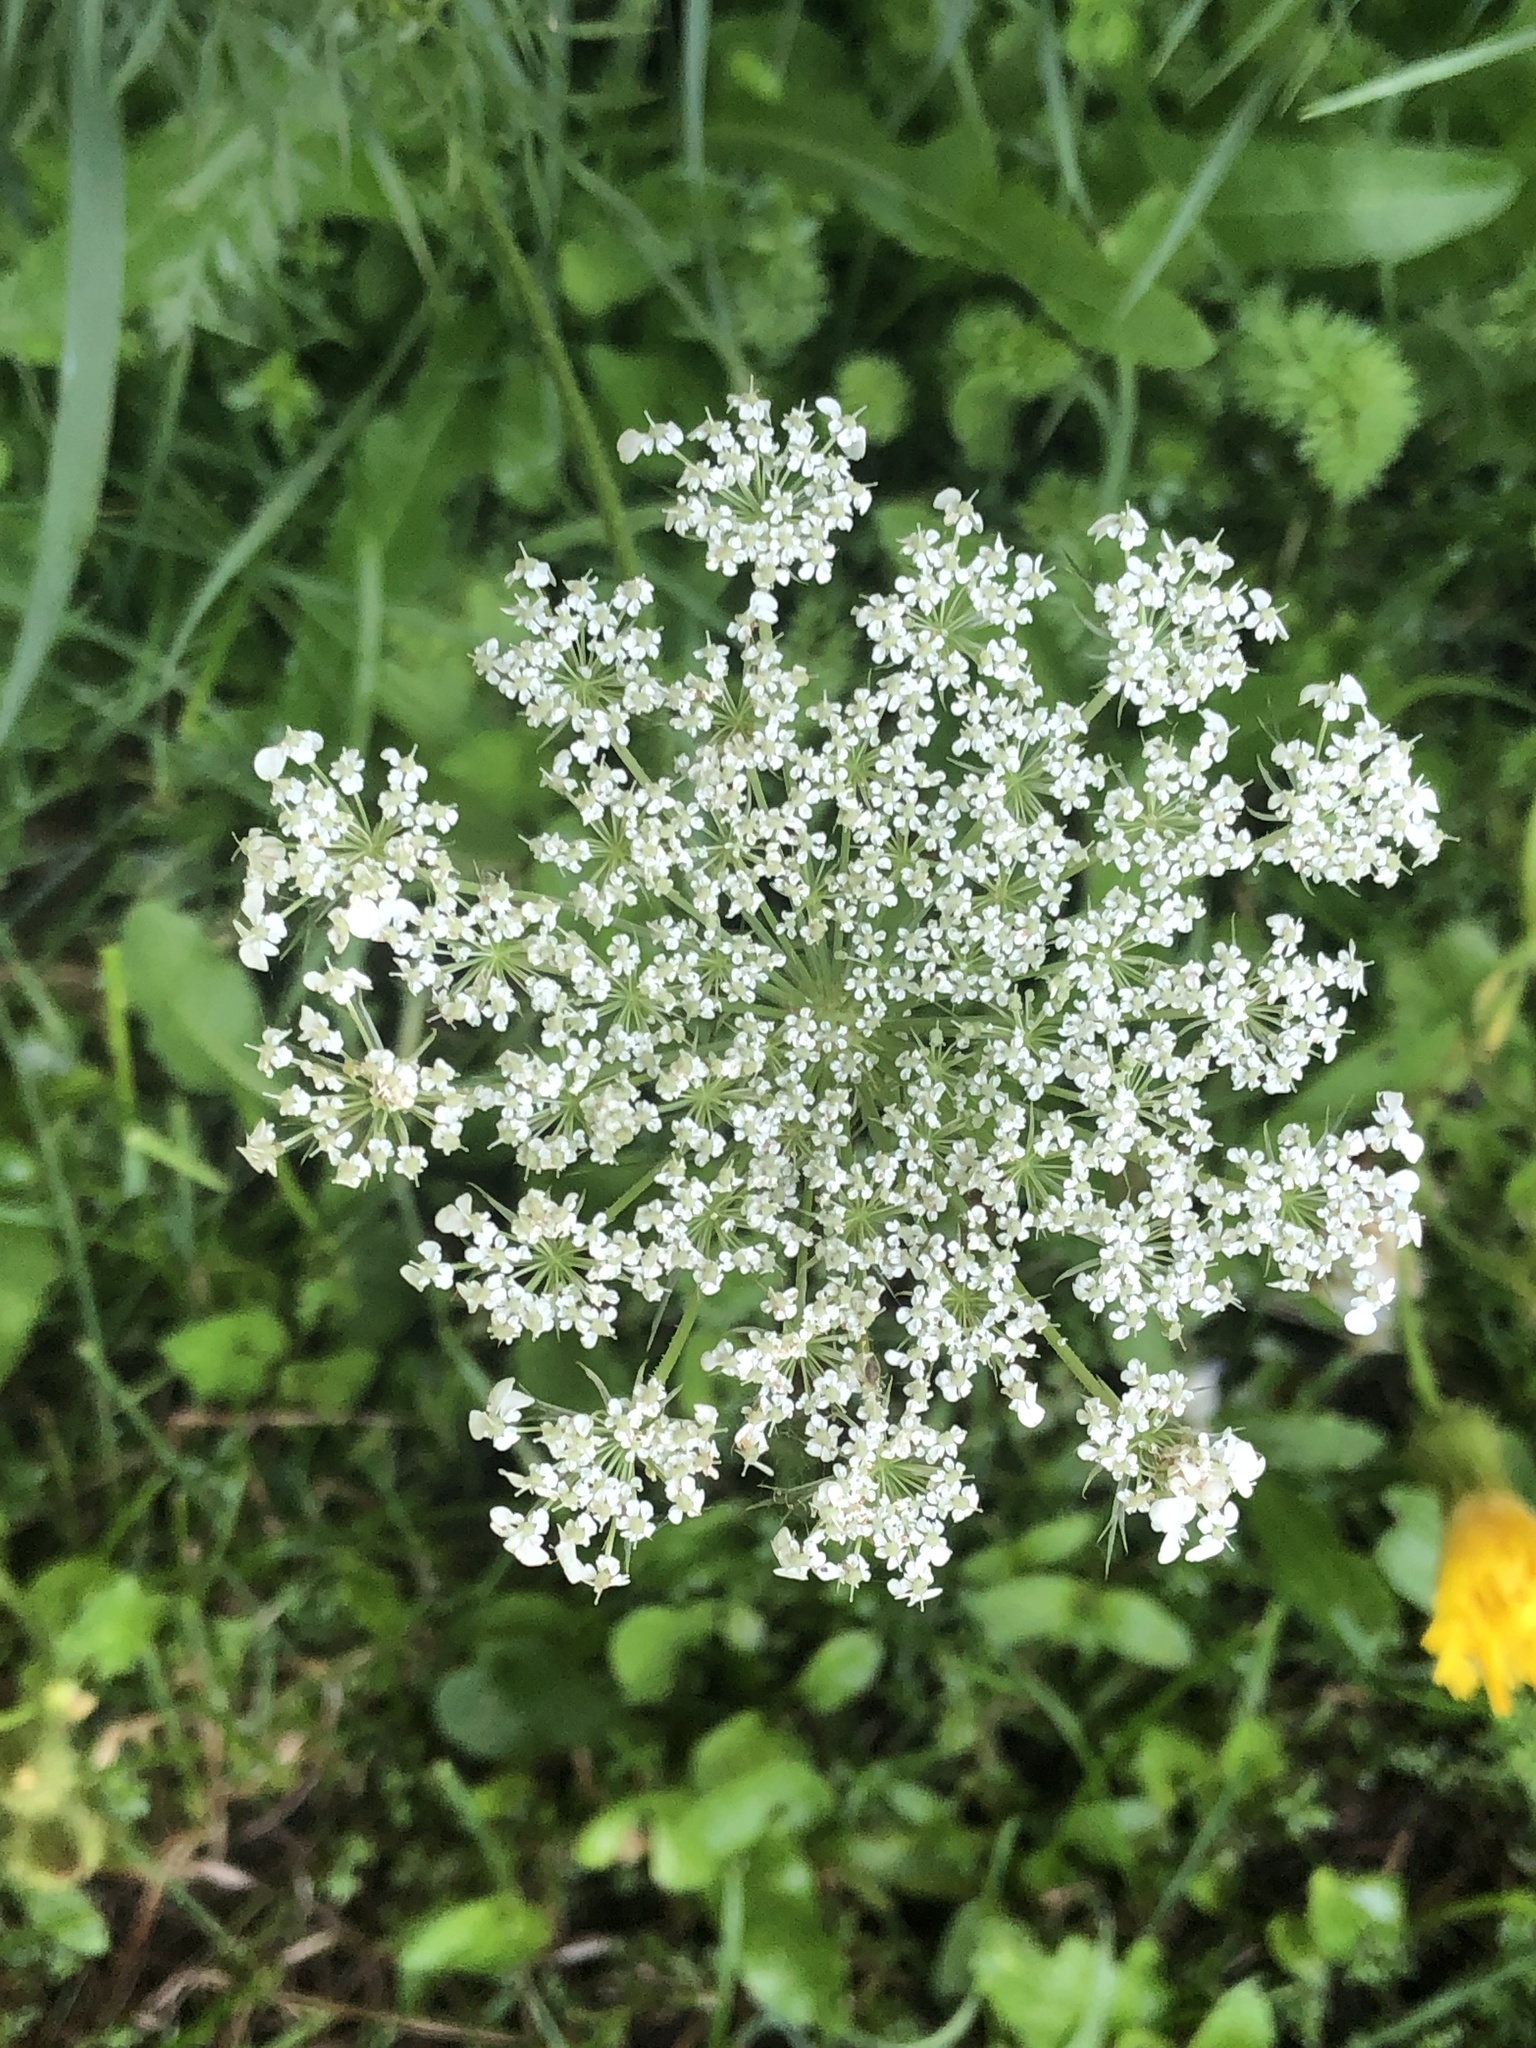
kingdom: Plantae
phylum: Tracheophyta
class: Magnoliopsida
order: Apiales
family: Apiaceae
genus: Daucus
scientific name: Daucus carota
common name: Wild carrot
